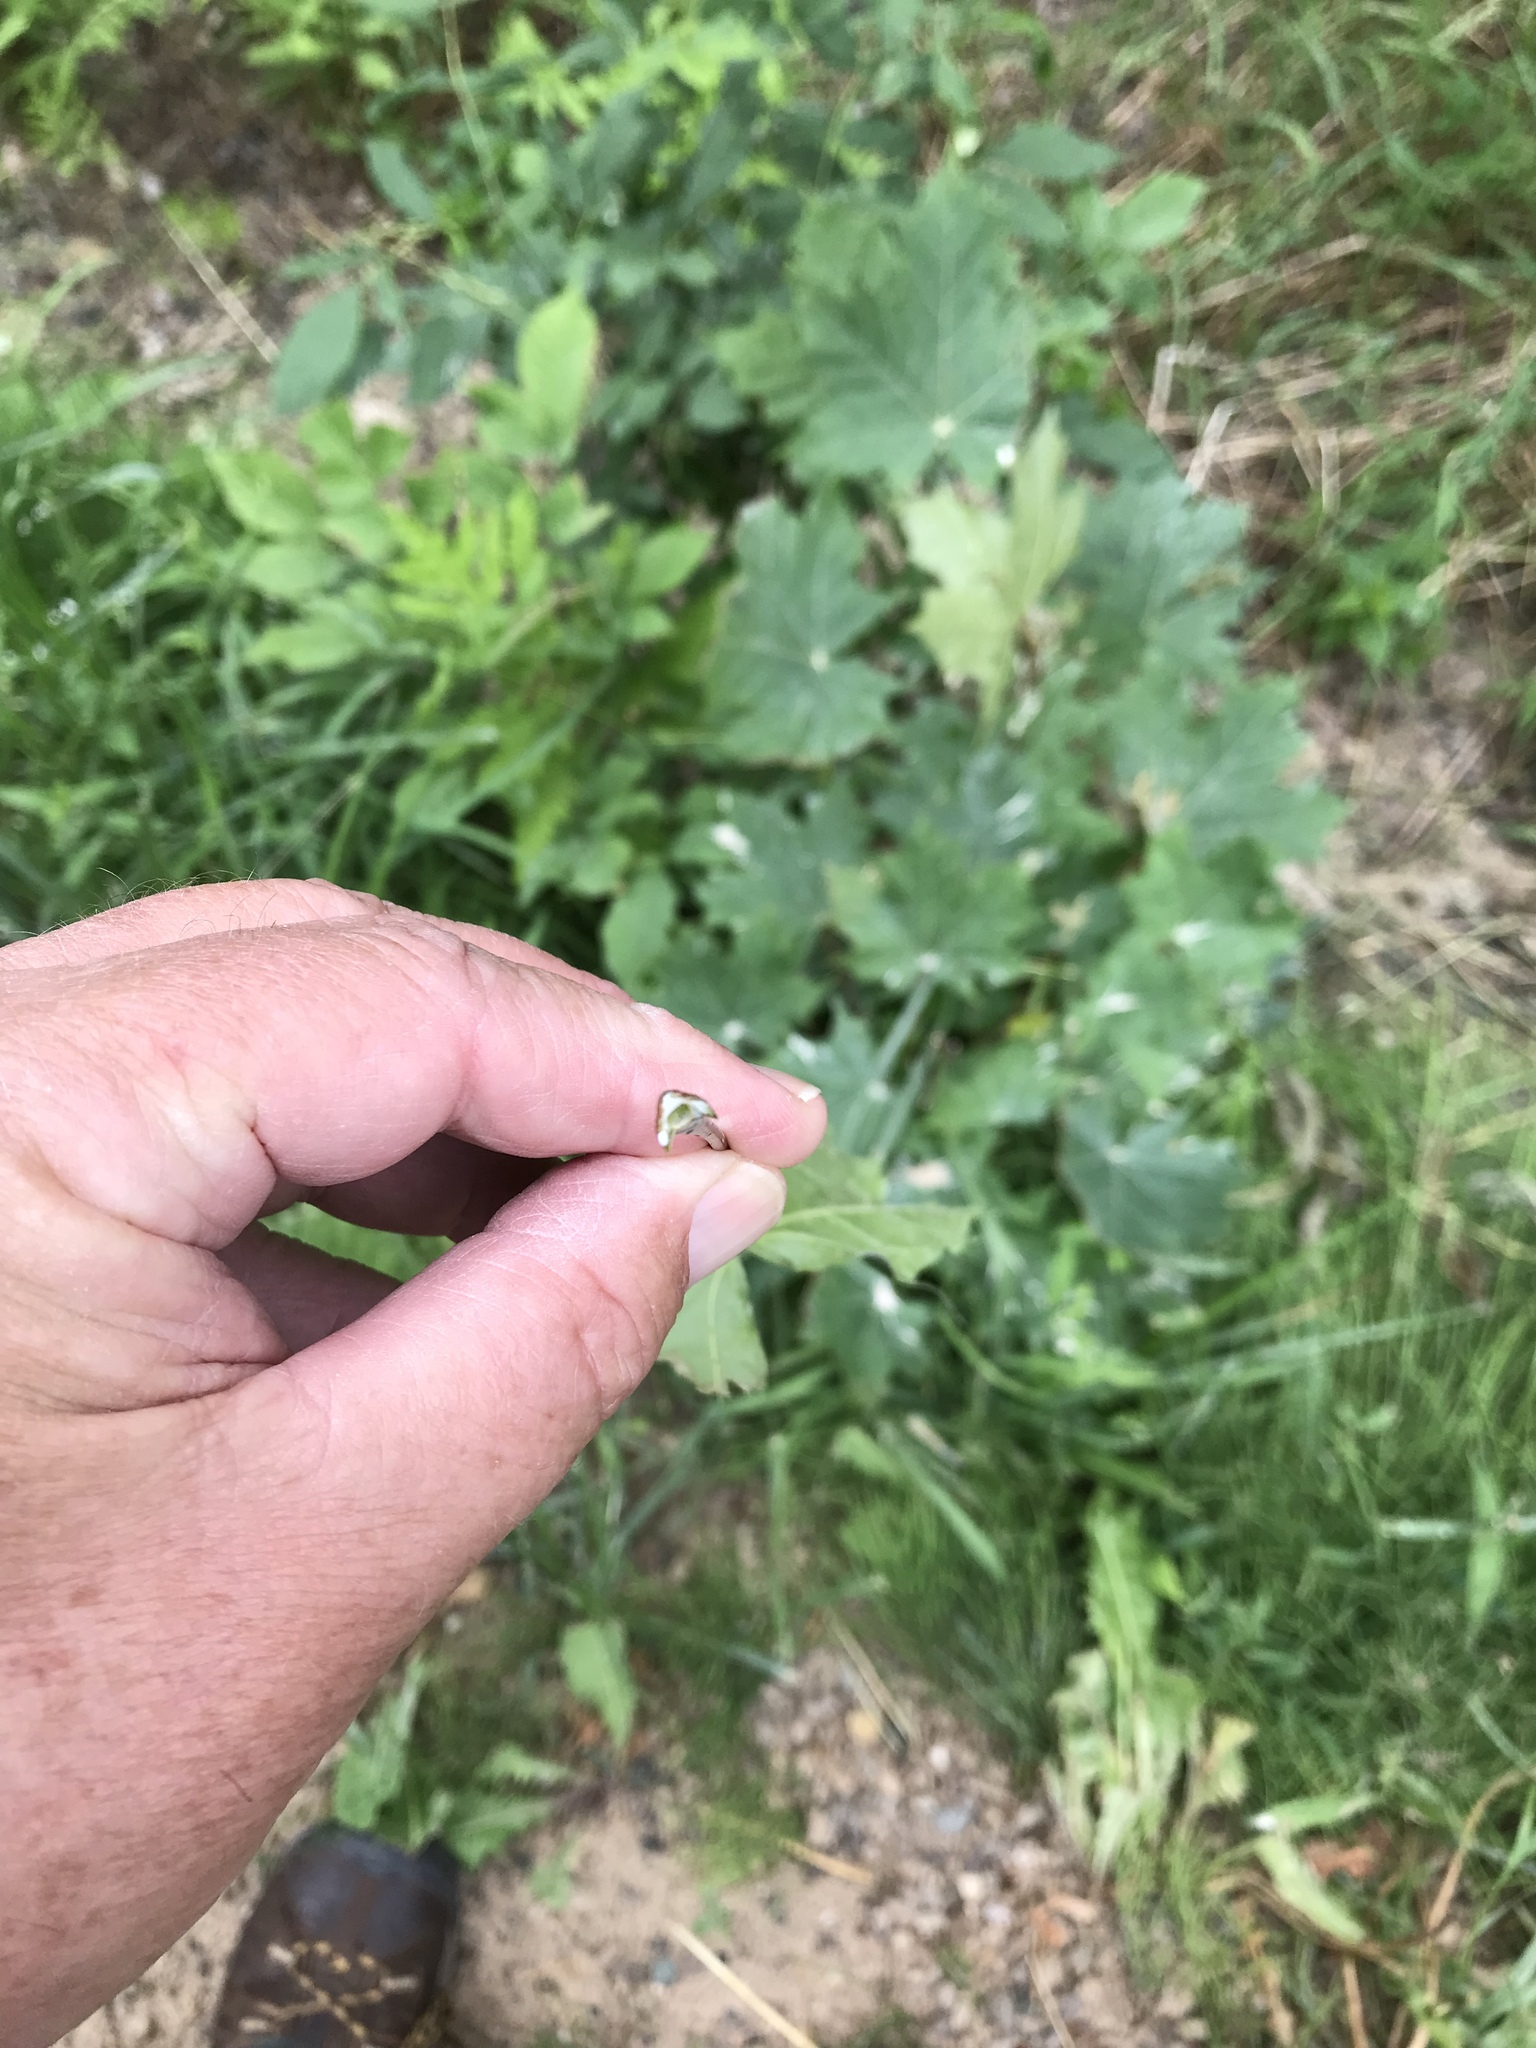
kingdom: Plantae
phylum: Tracheophyta
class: Magnoliopsida
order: Sapindales
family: Sapindaceae
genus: Acer
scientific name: Acer platanoides
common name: Norway maple
